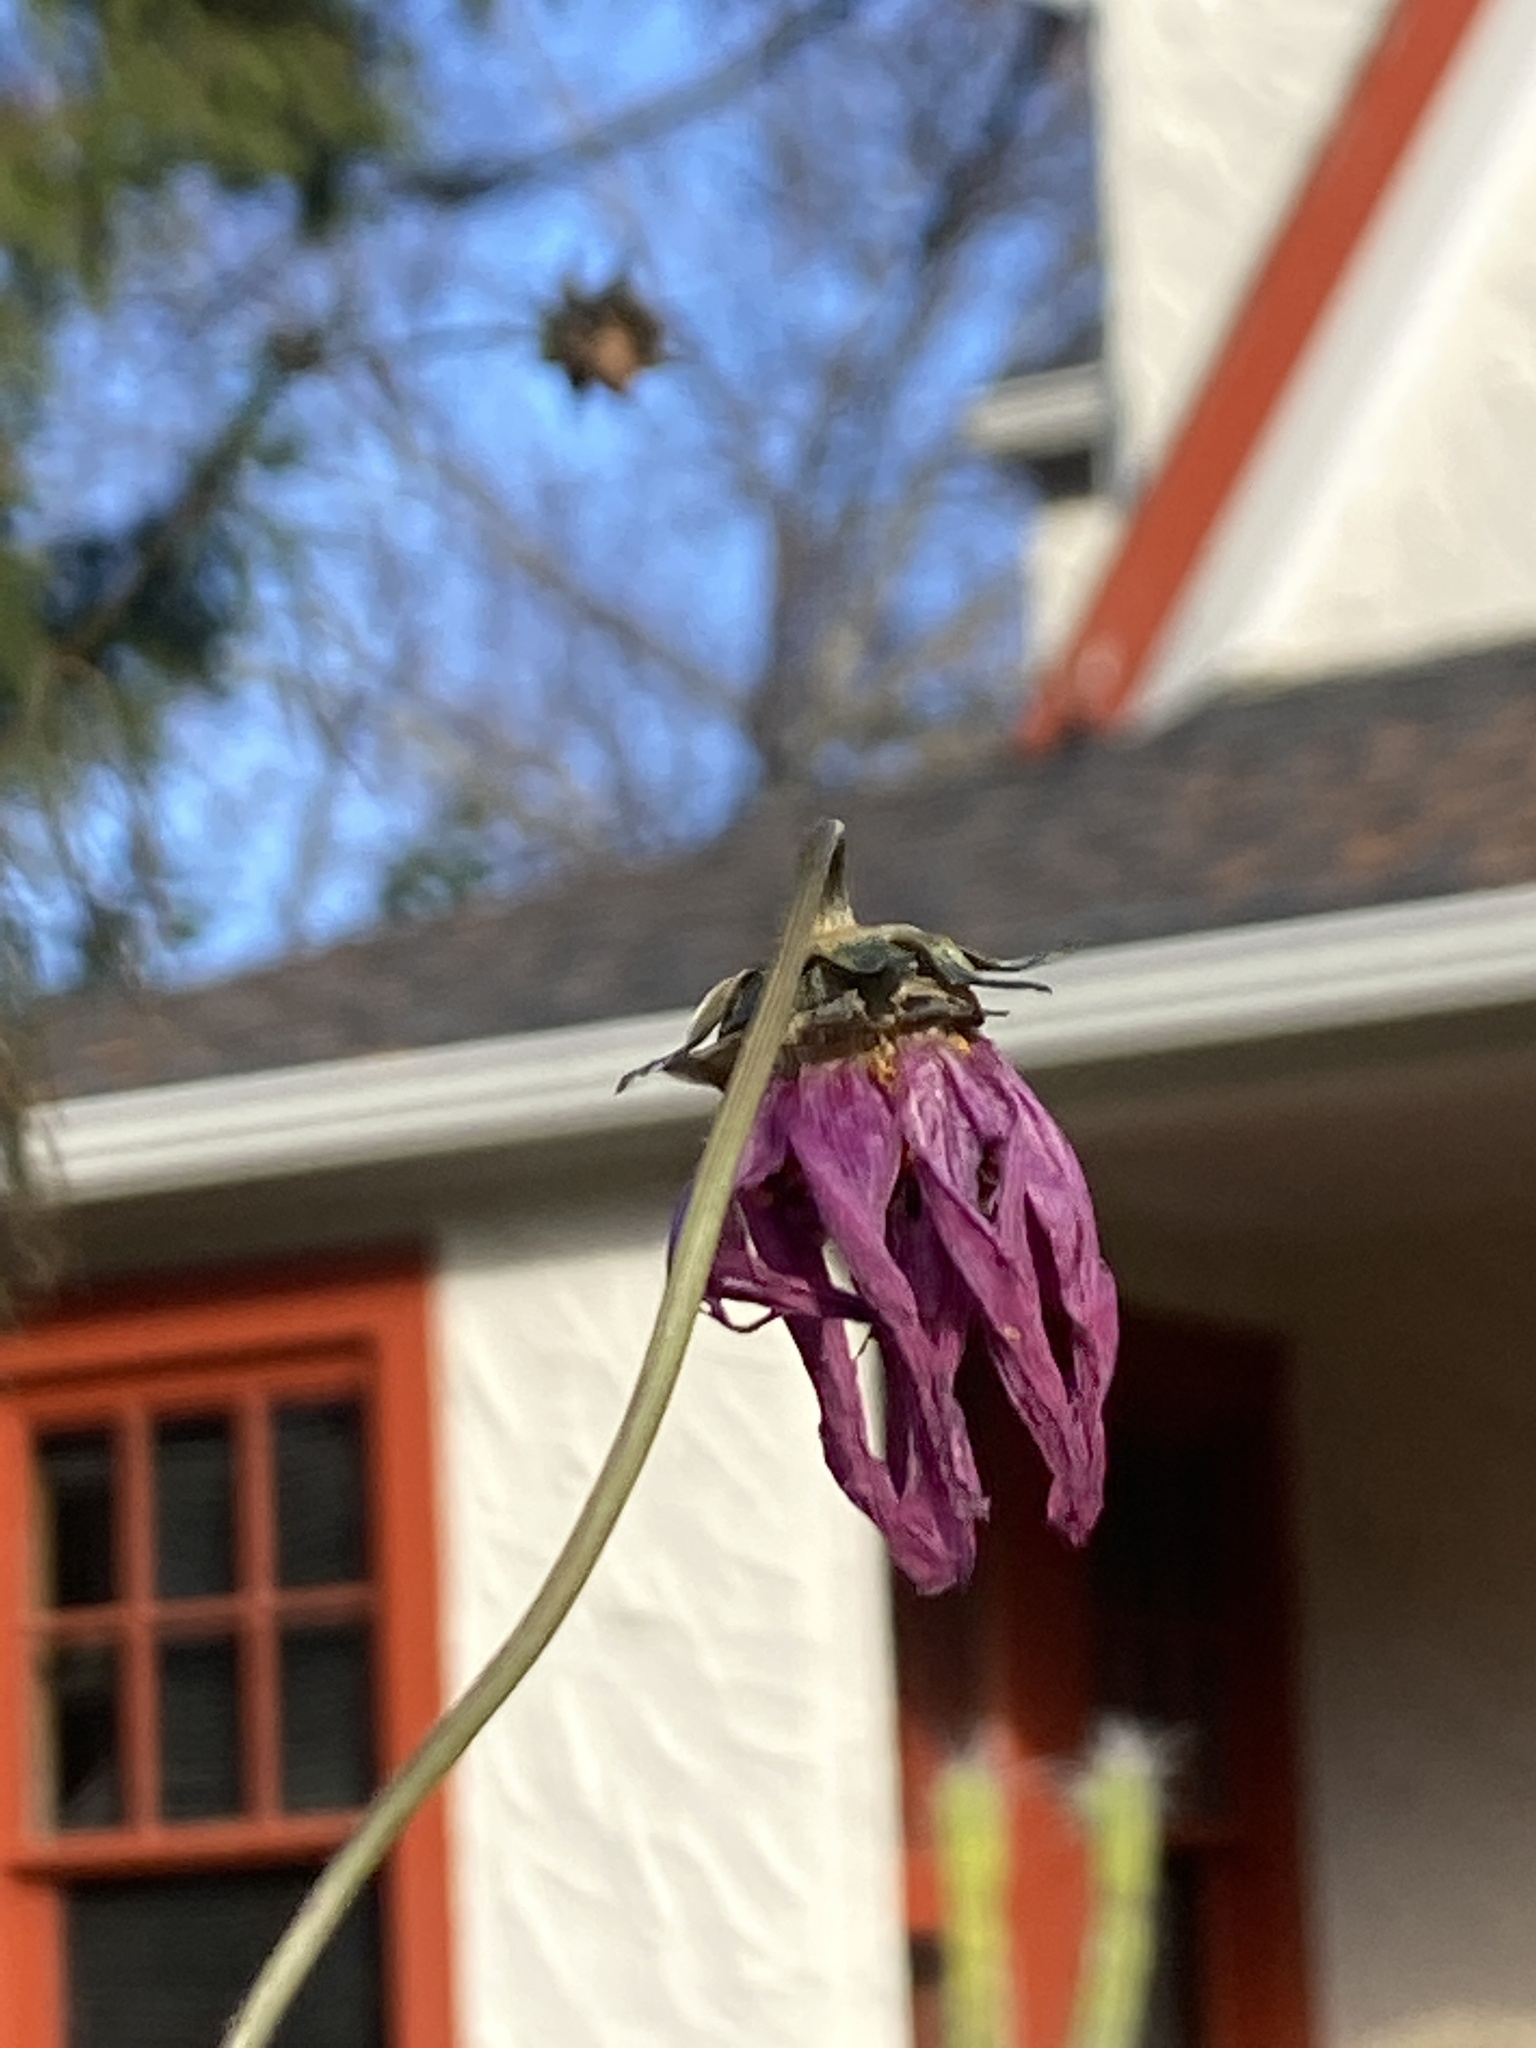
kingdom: Plantae
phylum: Tracheophyta
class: Magnoliopsida
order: Asterales
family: Asteraceae
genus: Cosmos
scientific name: Cosmos bipinnatus
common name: Garden cosmos
